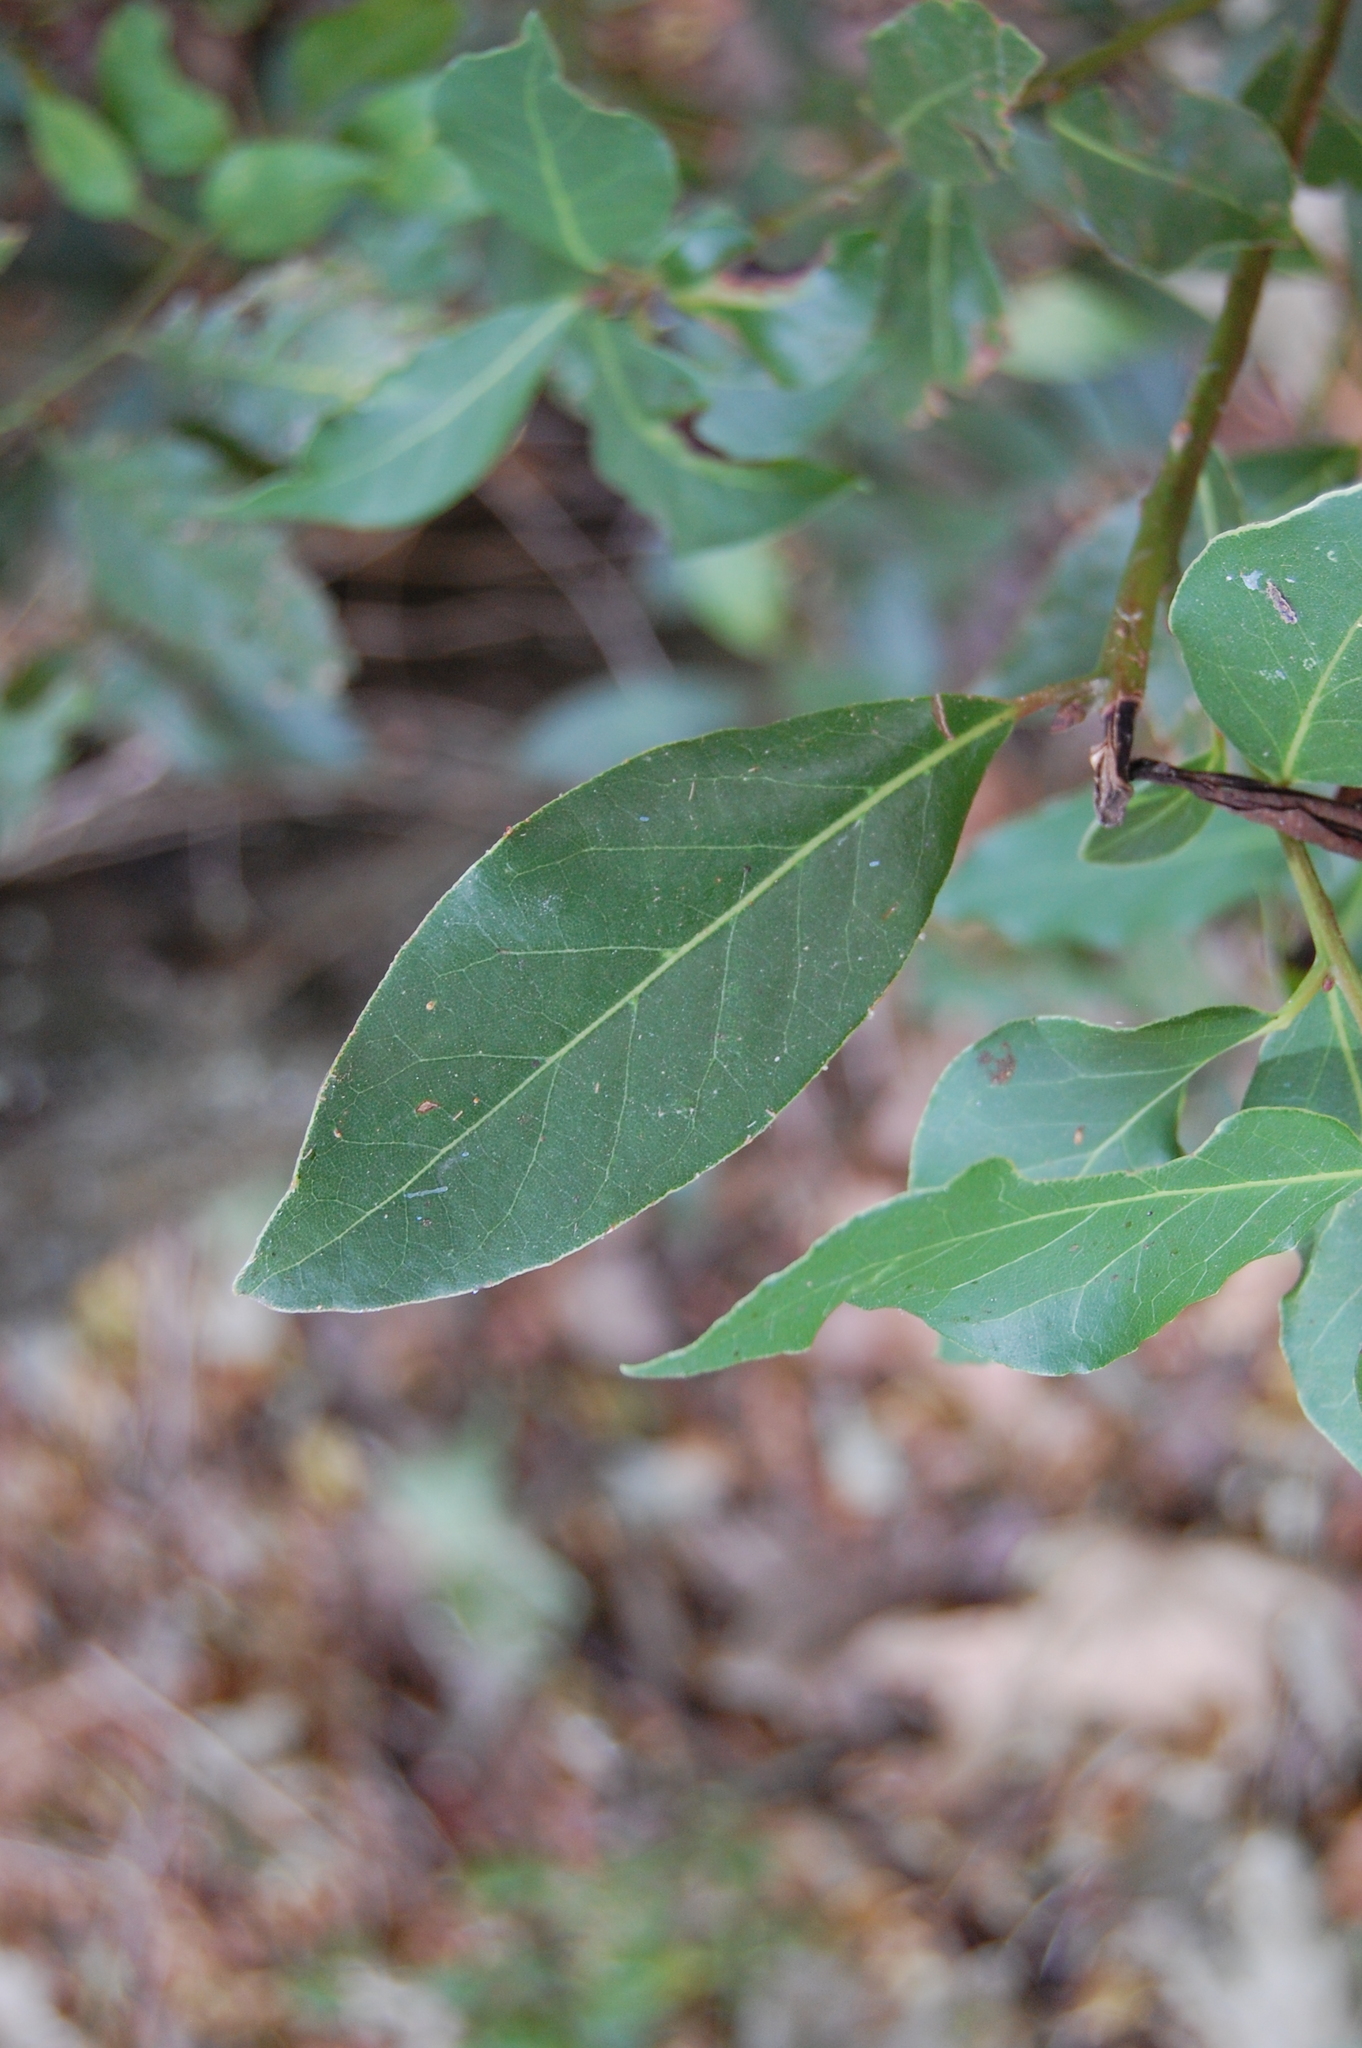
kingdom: Plantae
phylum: Tracheophyta
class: Magnoliopsida
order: Laurales
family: Lauraceae
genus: Laurus
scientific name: Laurus nobilis
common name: Bay
